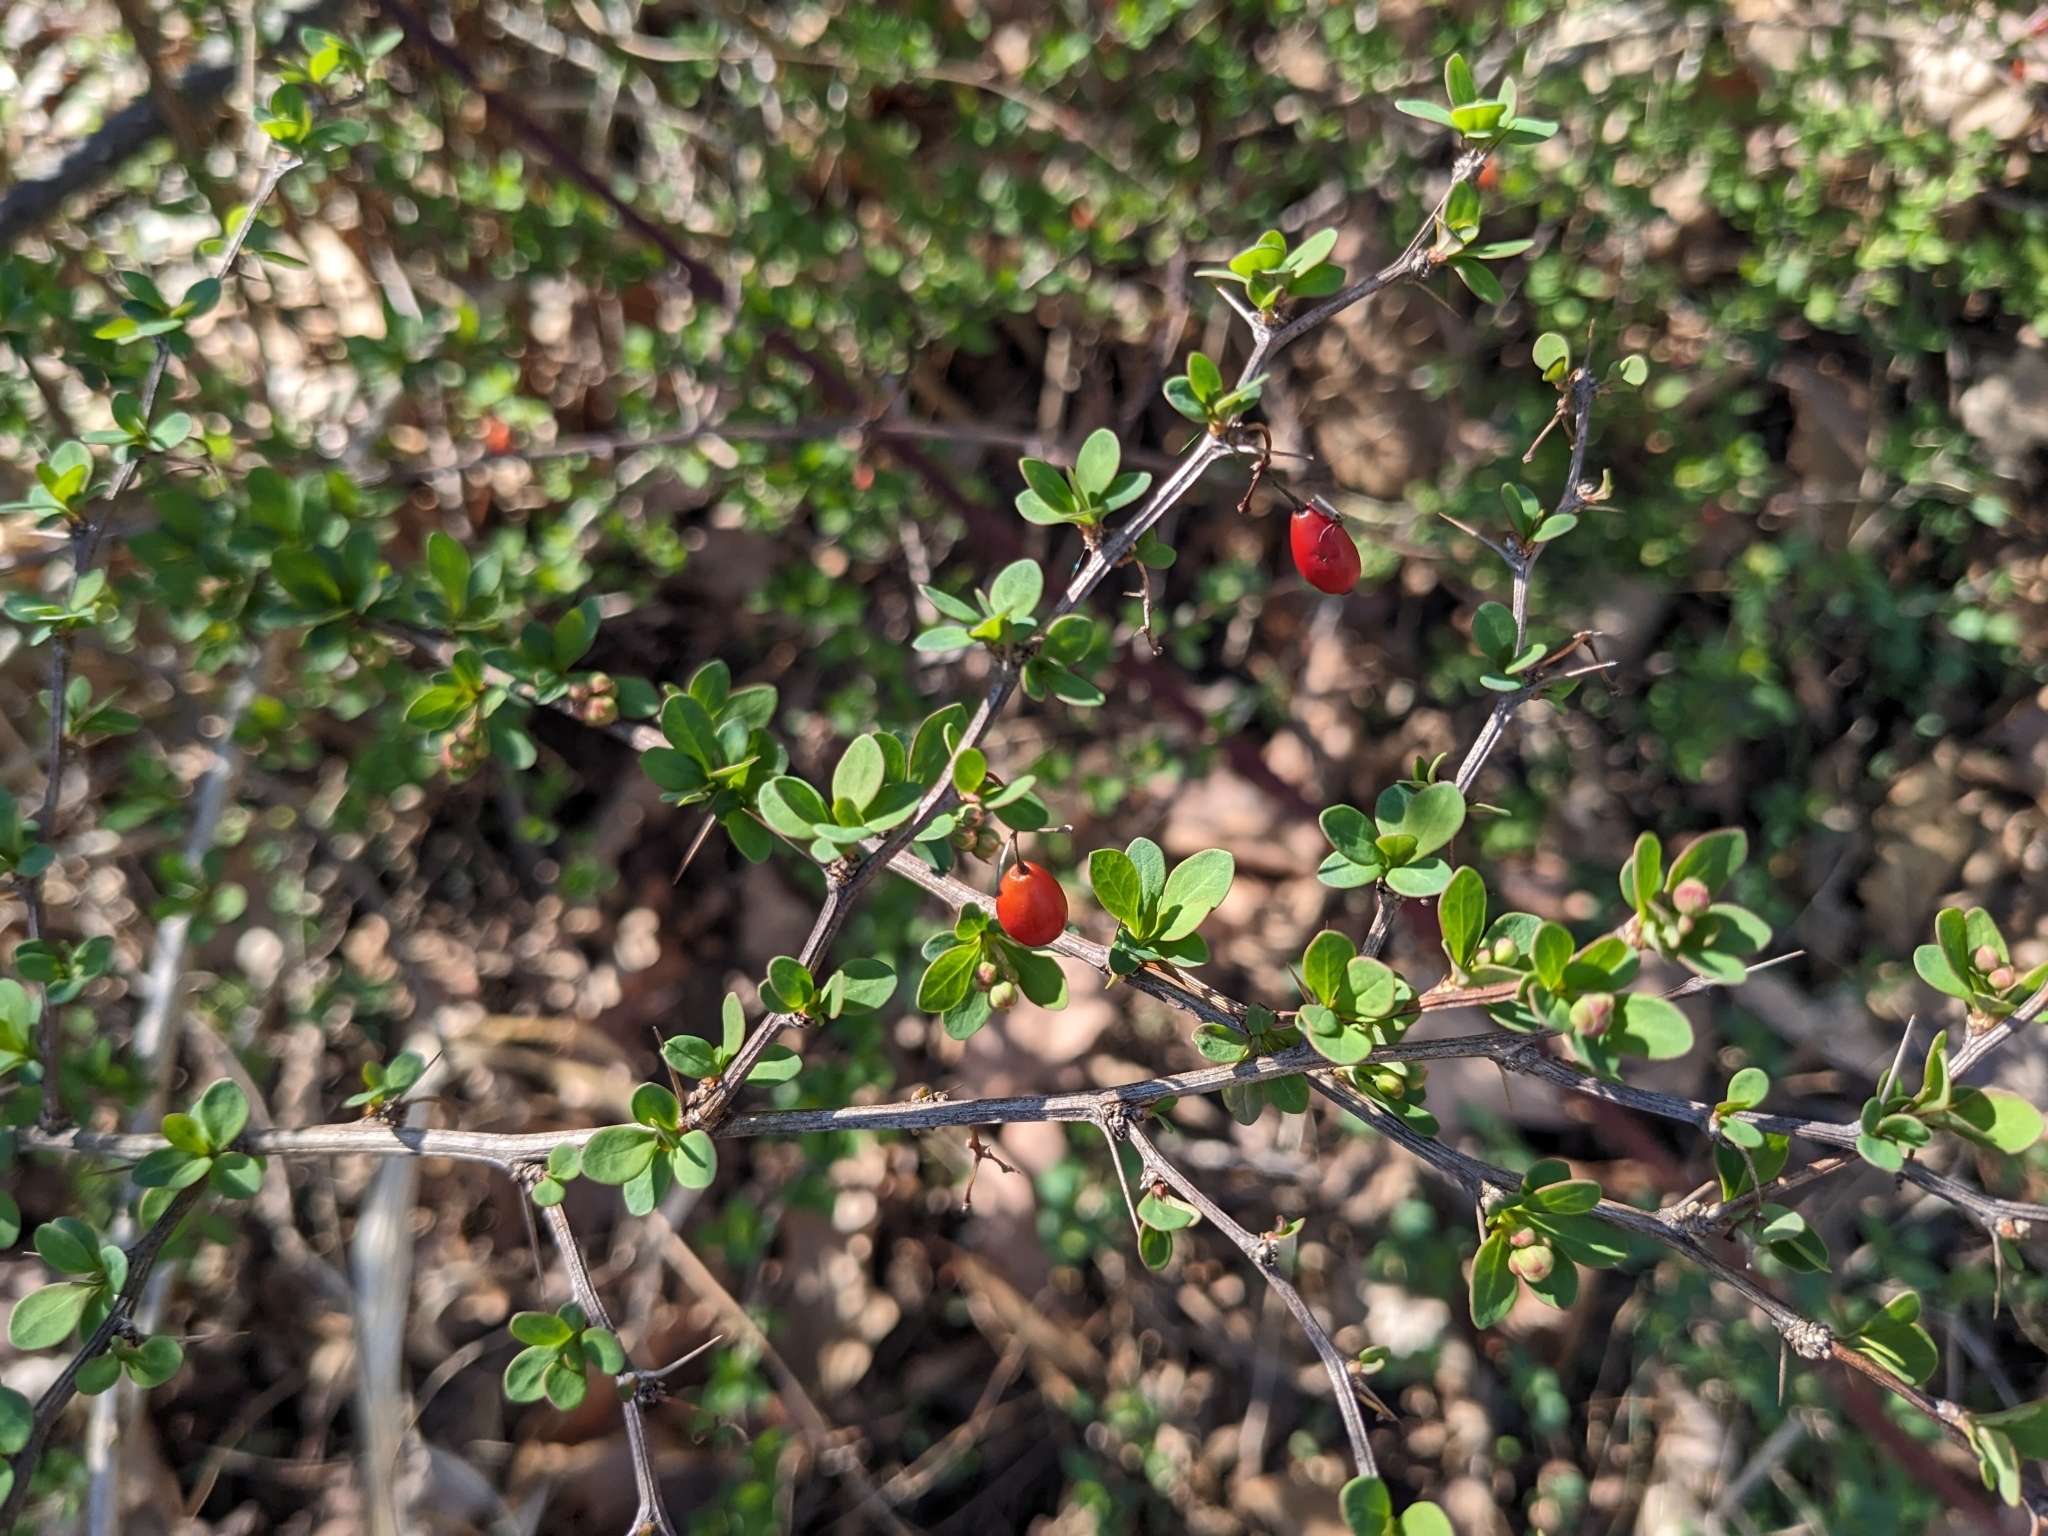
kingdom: Plantae
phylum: Tracheophyta
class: Magnoliopsida
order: Ranunculales
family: Berberidaceae
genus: Berberis
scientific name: Berberis thunbergii
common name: Japanese barberry
